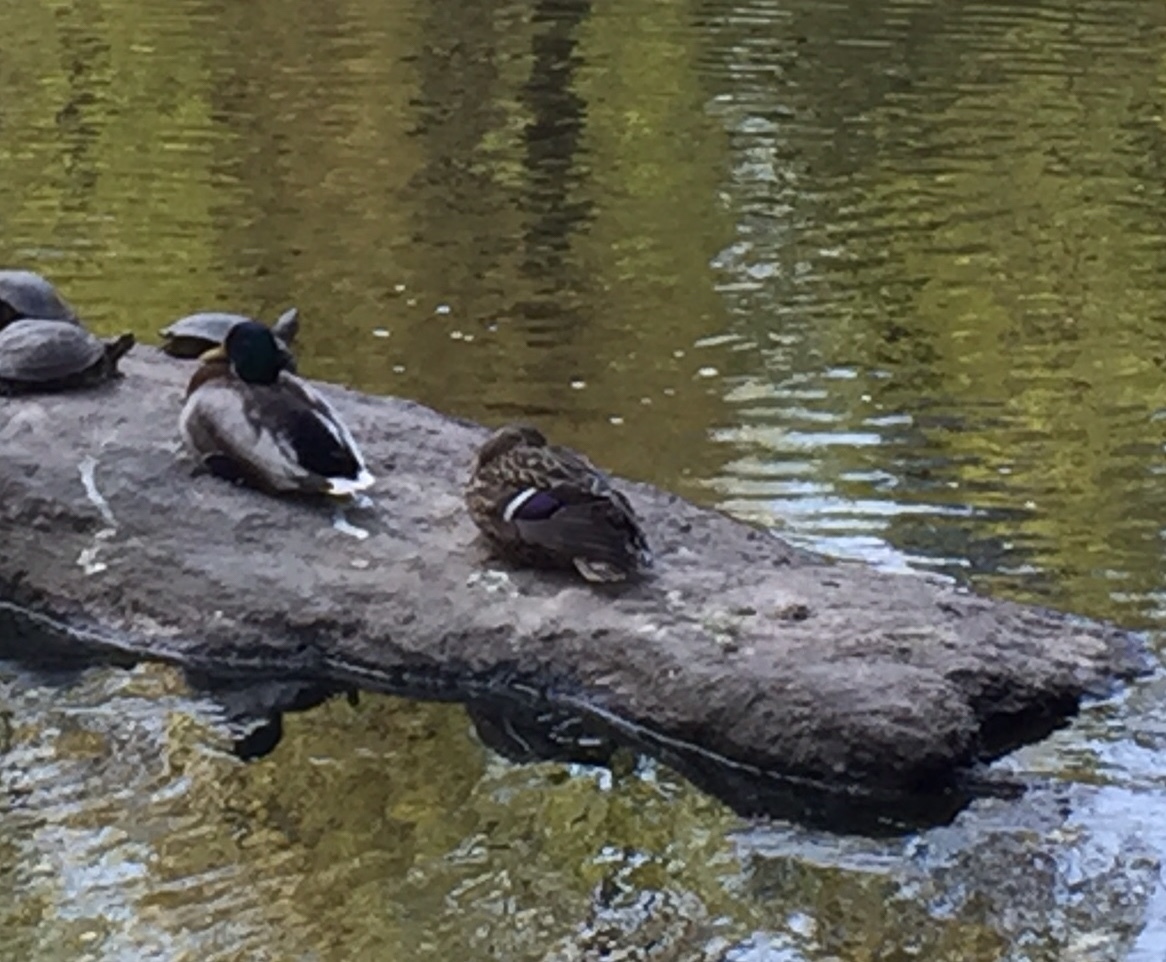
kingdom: Animalia
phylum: Chordata
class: Aves
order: Anseriformes
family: Anatidae
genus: Anas
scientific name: Anas platyrhynchos
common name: Mallard
